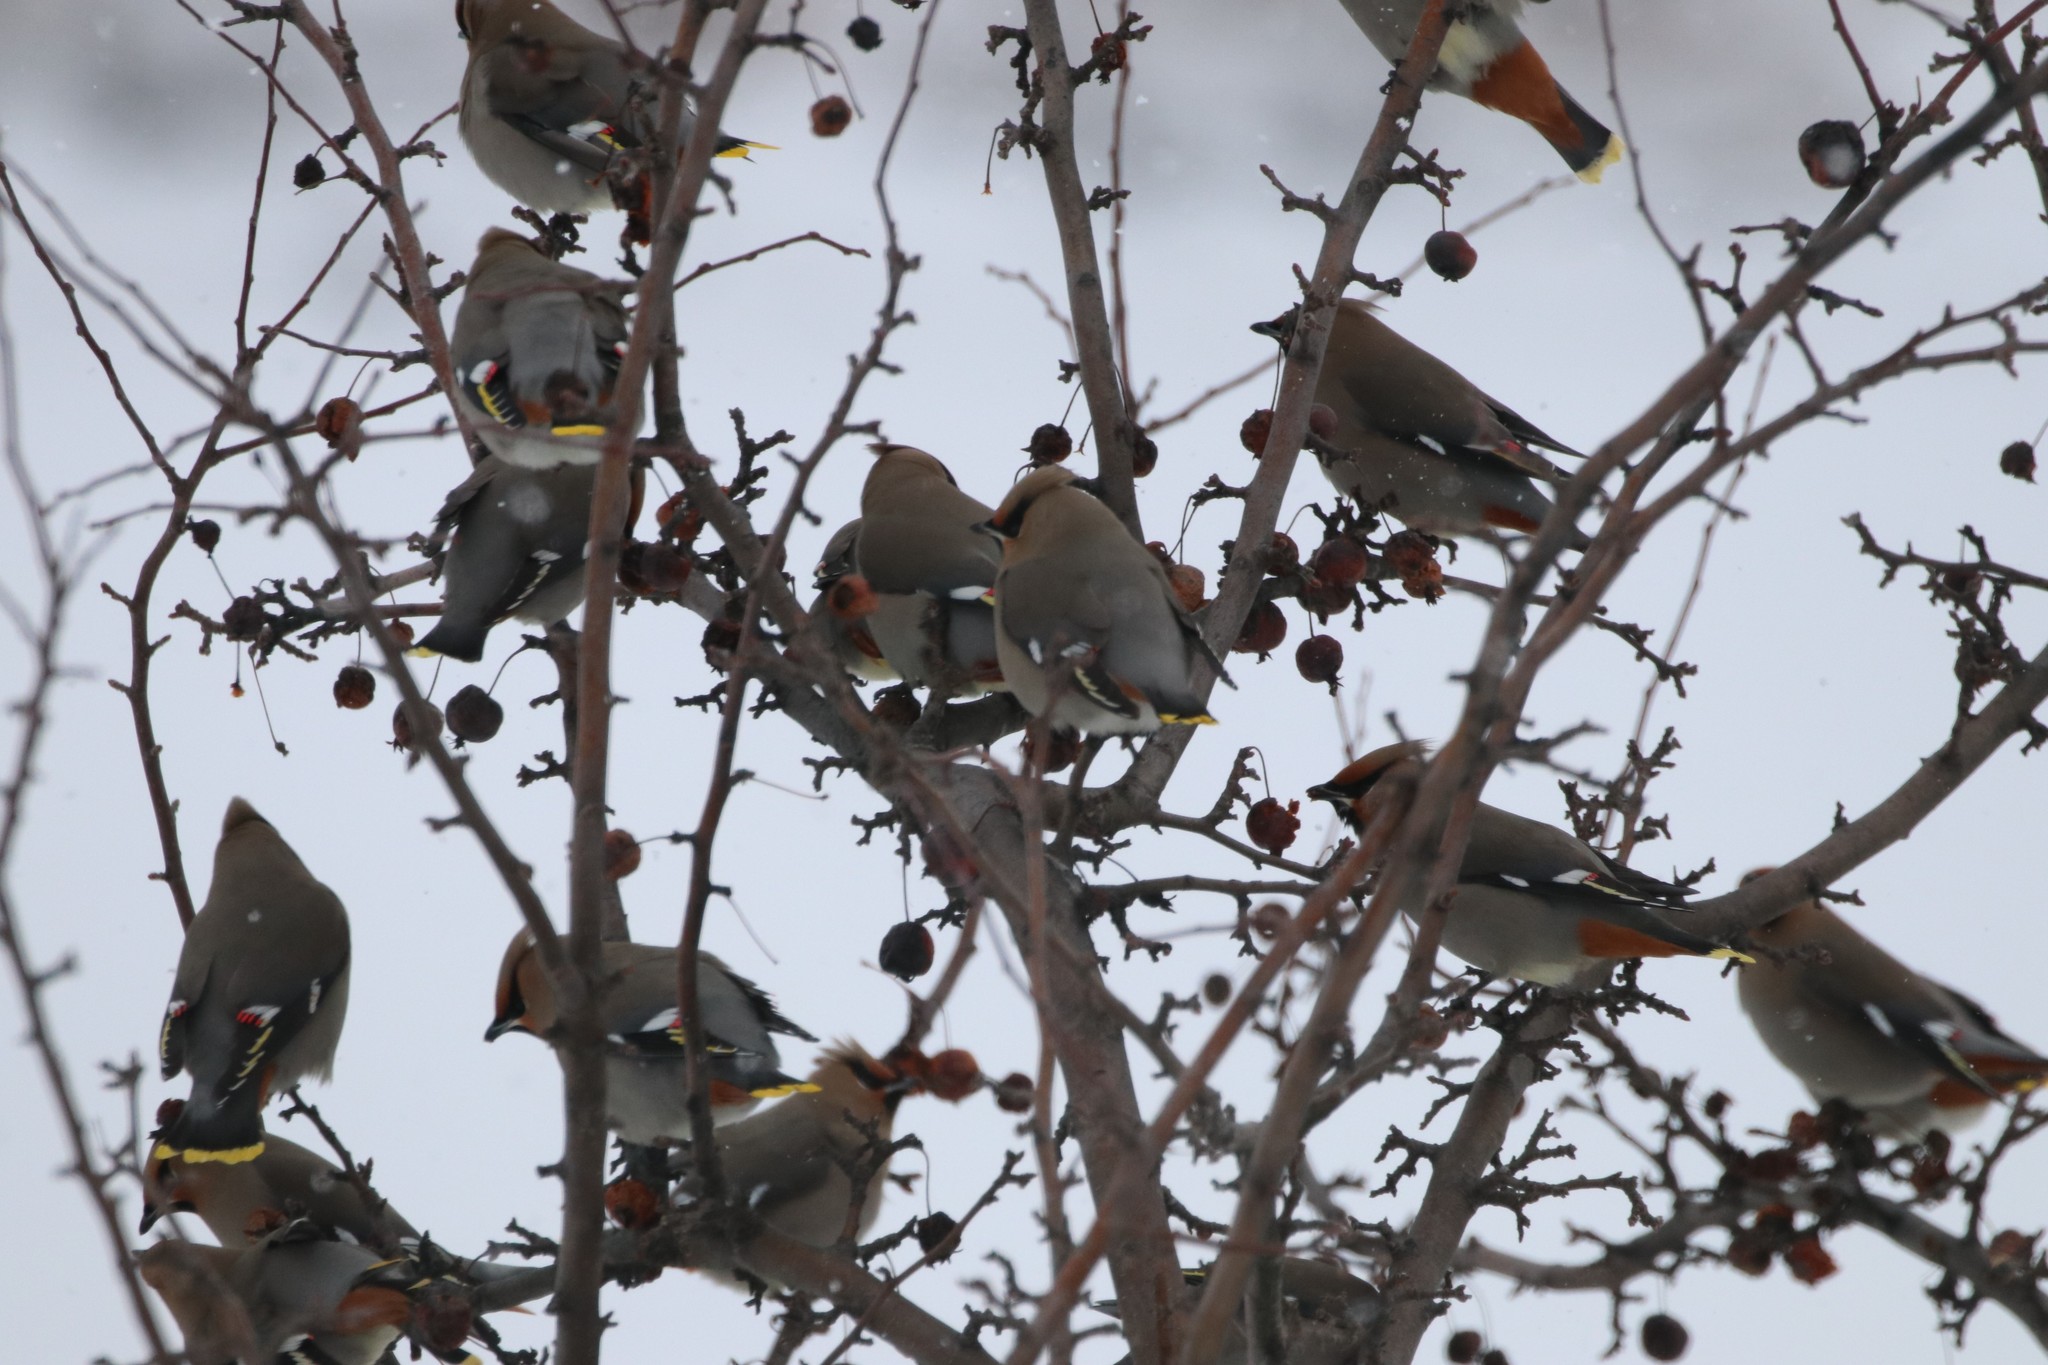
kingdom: Animalia
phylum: Chordata
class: Aves
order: Passeriformes
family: Bombycillidae
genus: Bombycilla
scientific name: Bombycilla garrulus
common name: Bohemian waxwing
